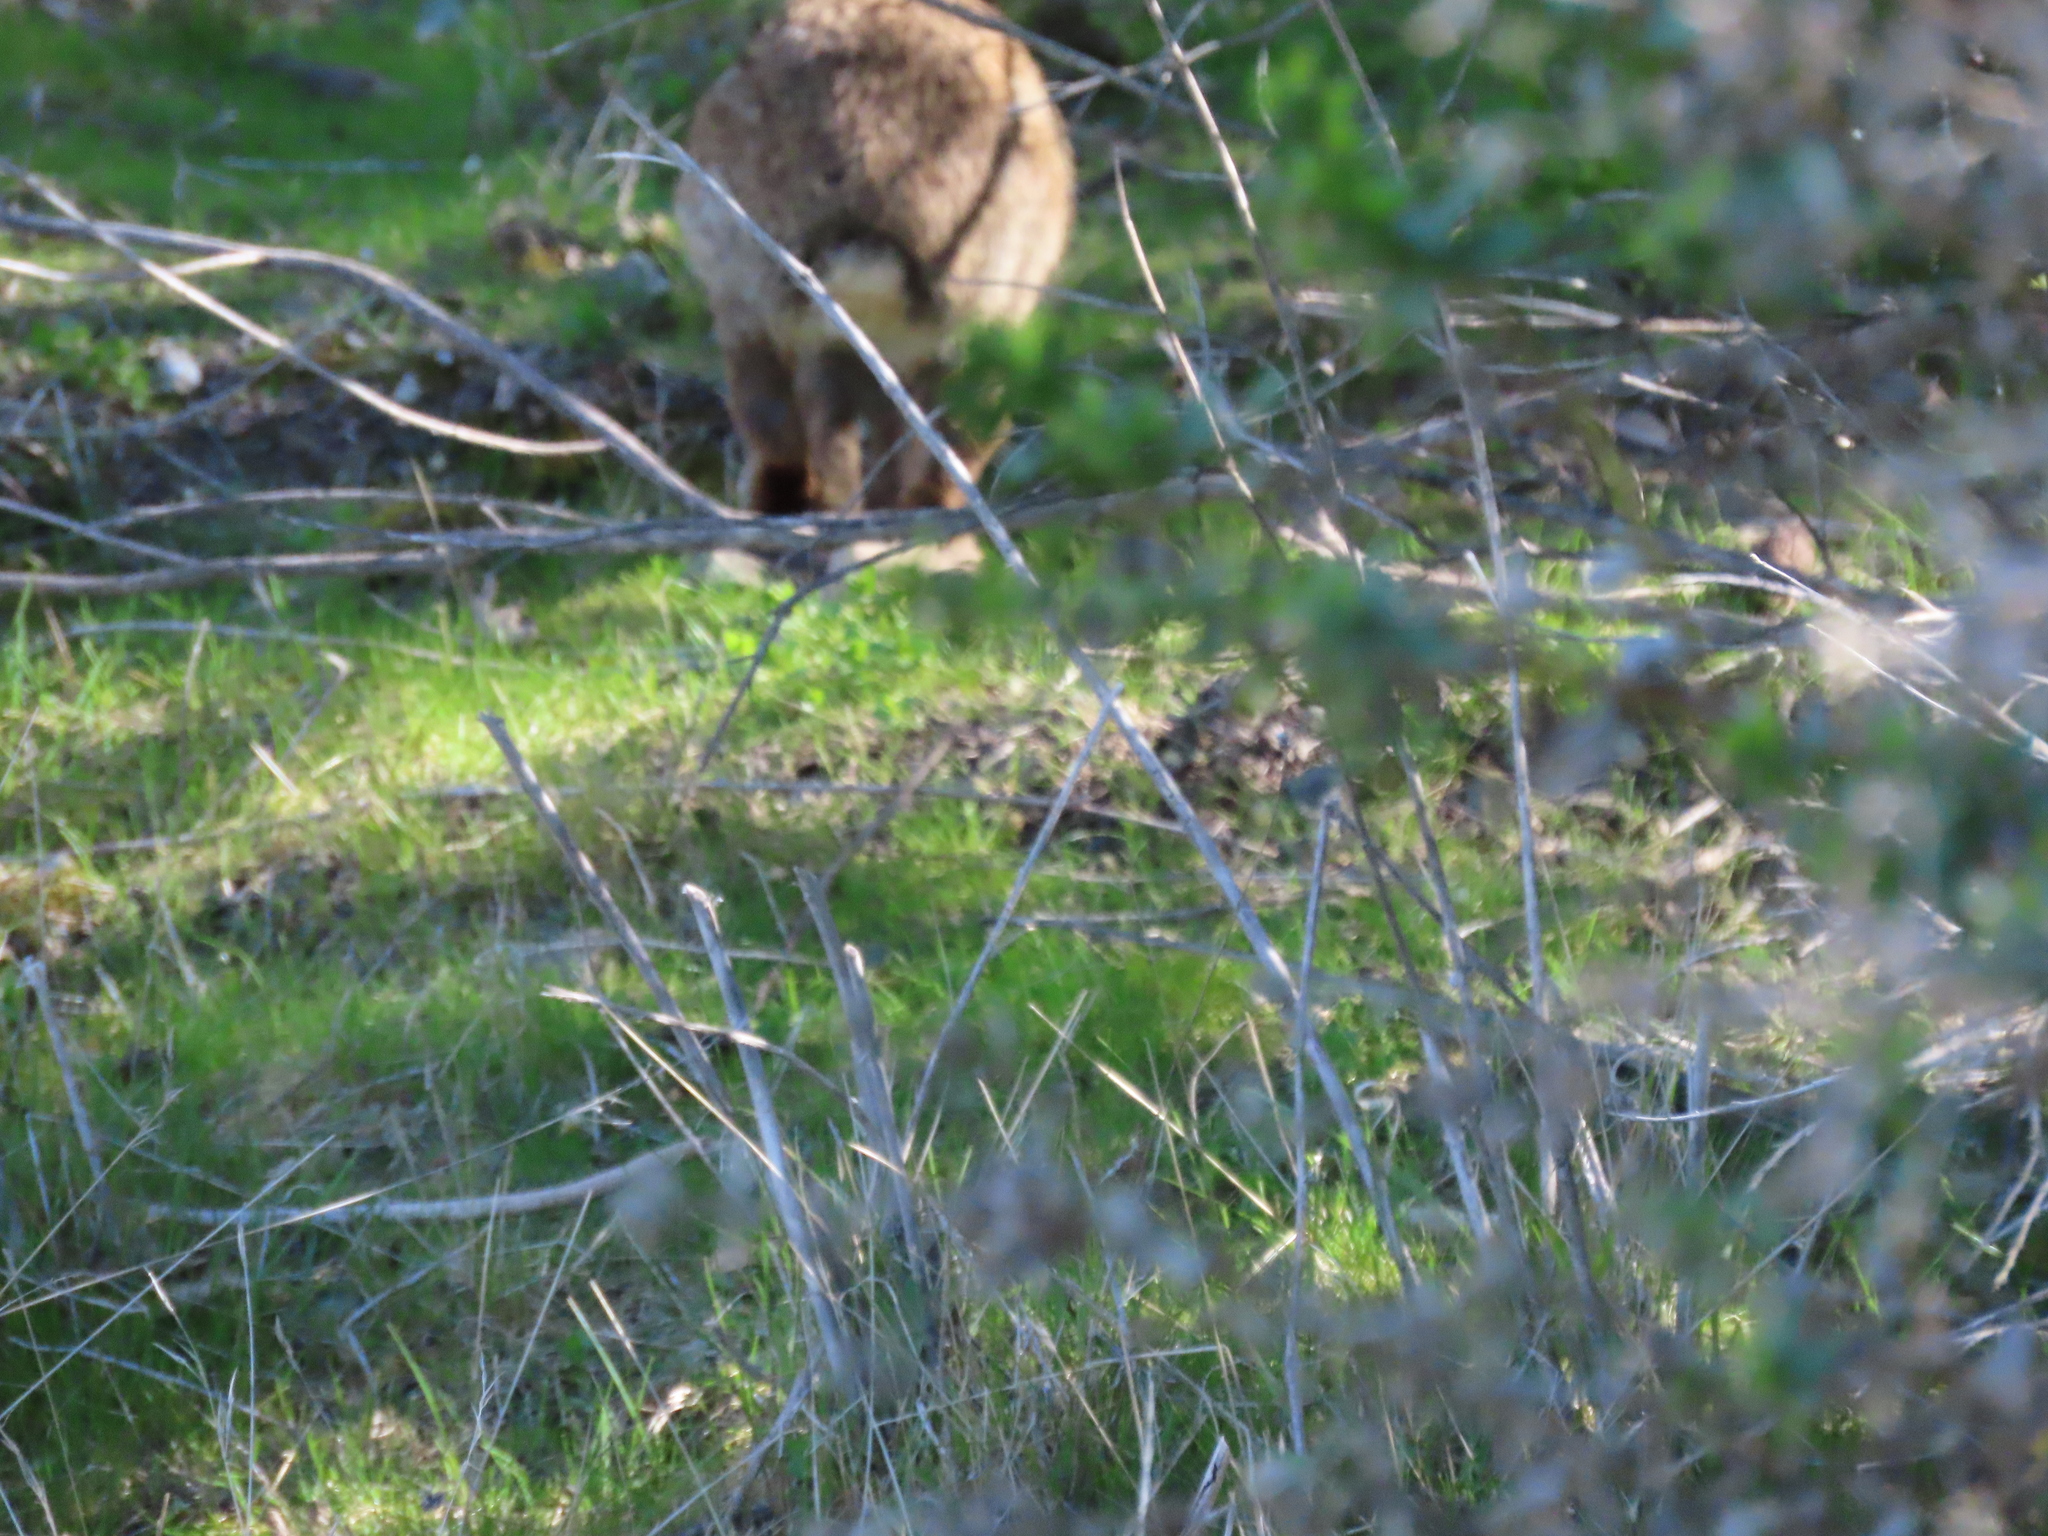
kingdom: Animalia
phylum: Chordata
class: Mammalia
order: Lagomorpha
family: Leporidae
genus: Sylvilagus
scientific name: Sylvilagus bachmani
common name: Brush rabbit
